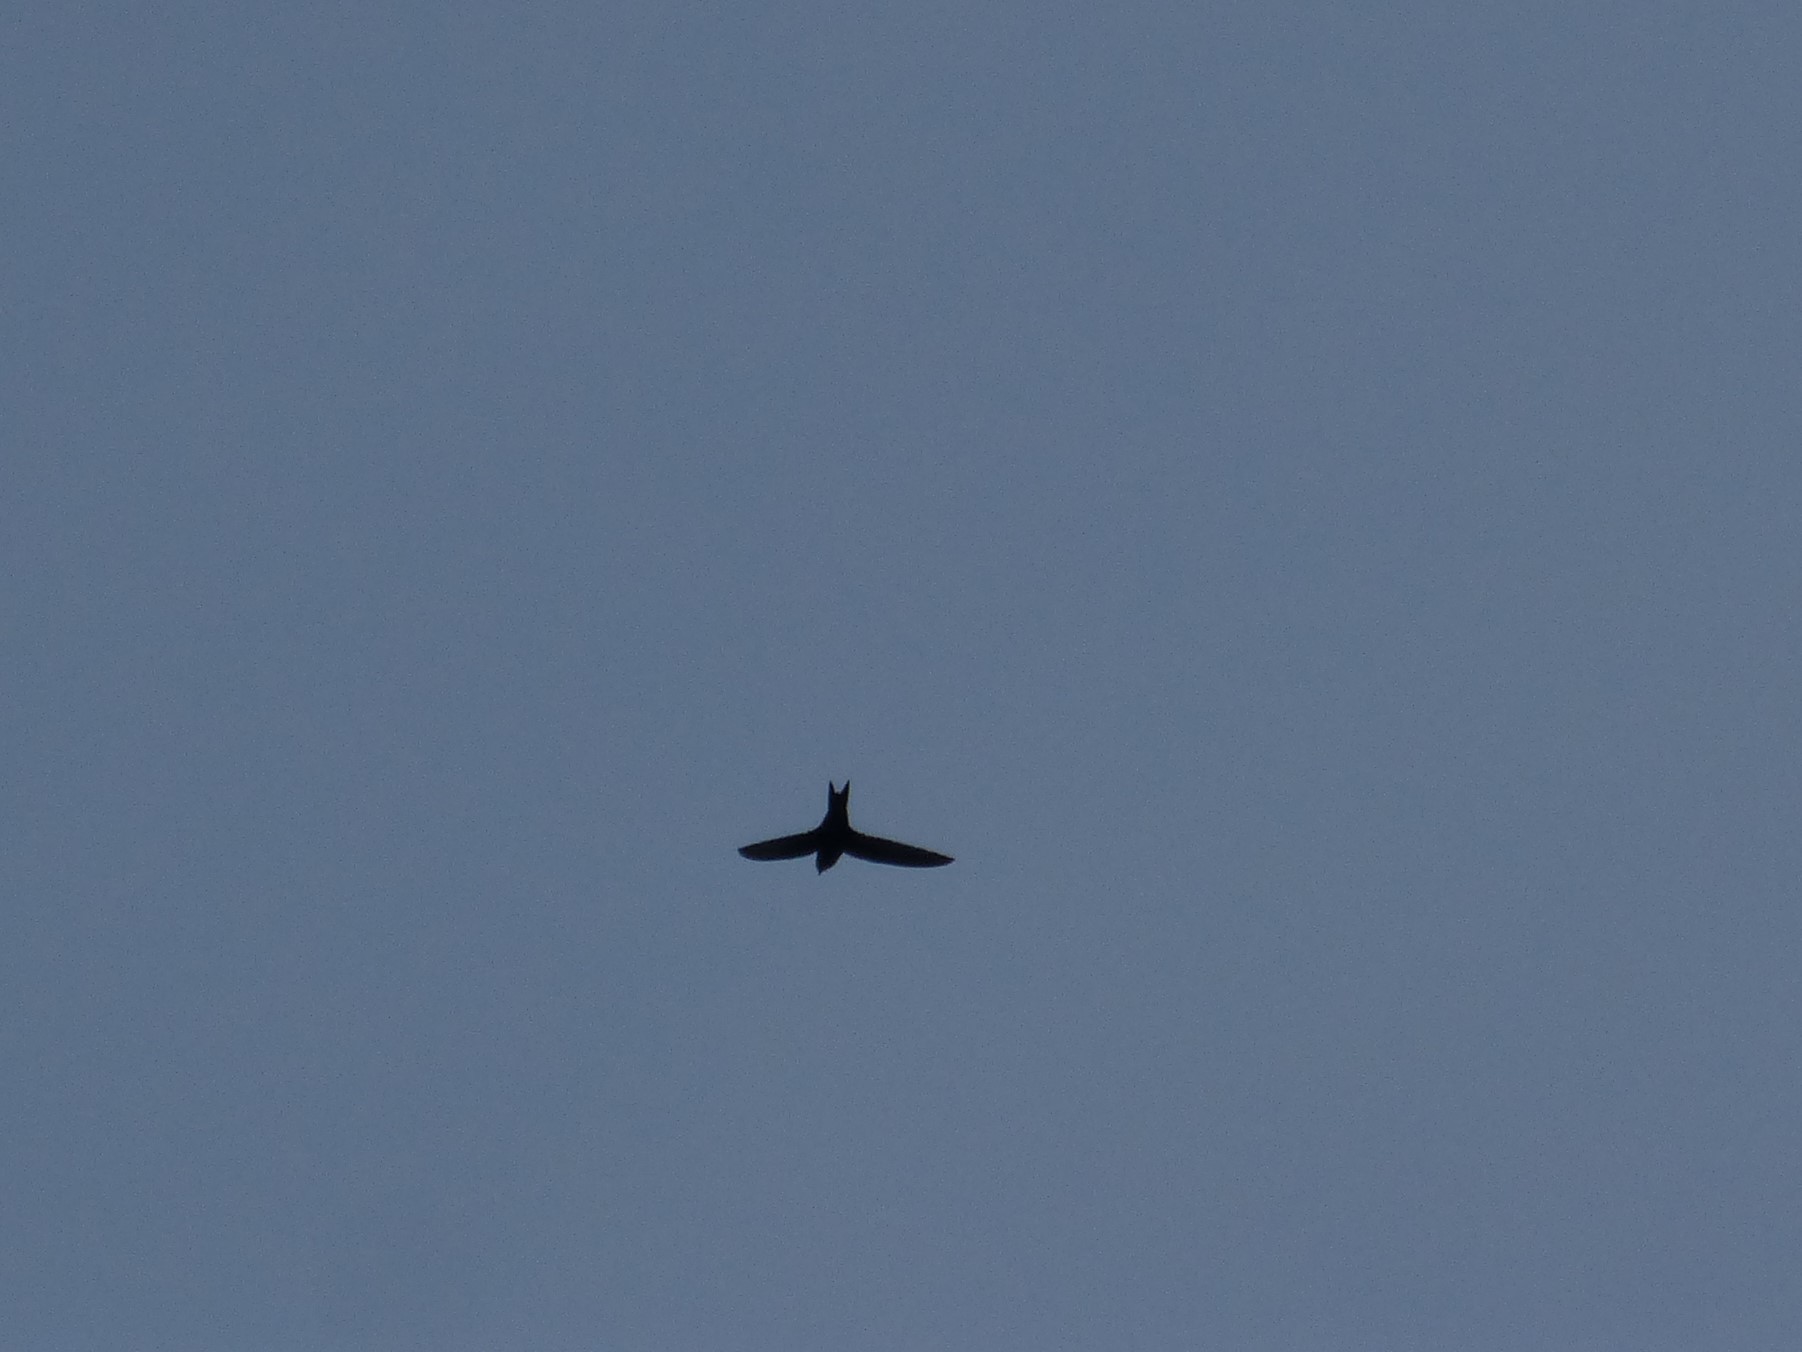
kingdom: Animalia
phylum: Chordata
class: Aves
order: Apodiformes
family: Apodidae
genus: Apus
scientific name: Apus apus
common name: Common swift
